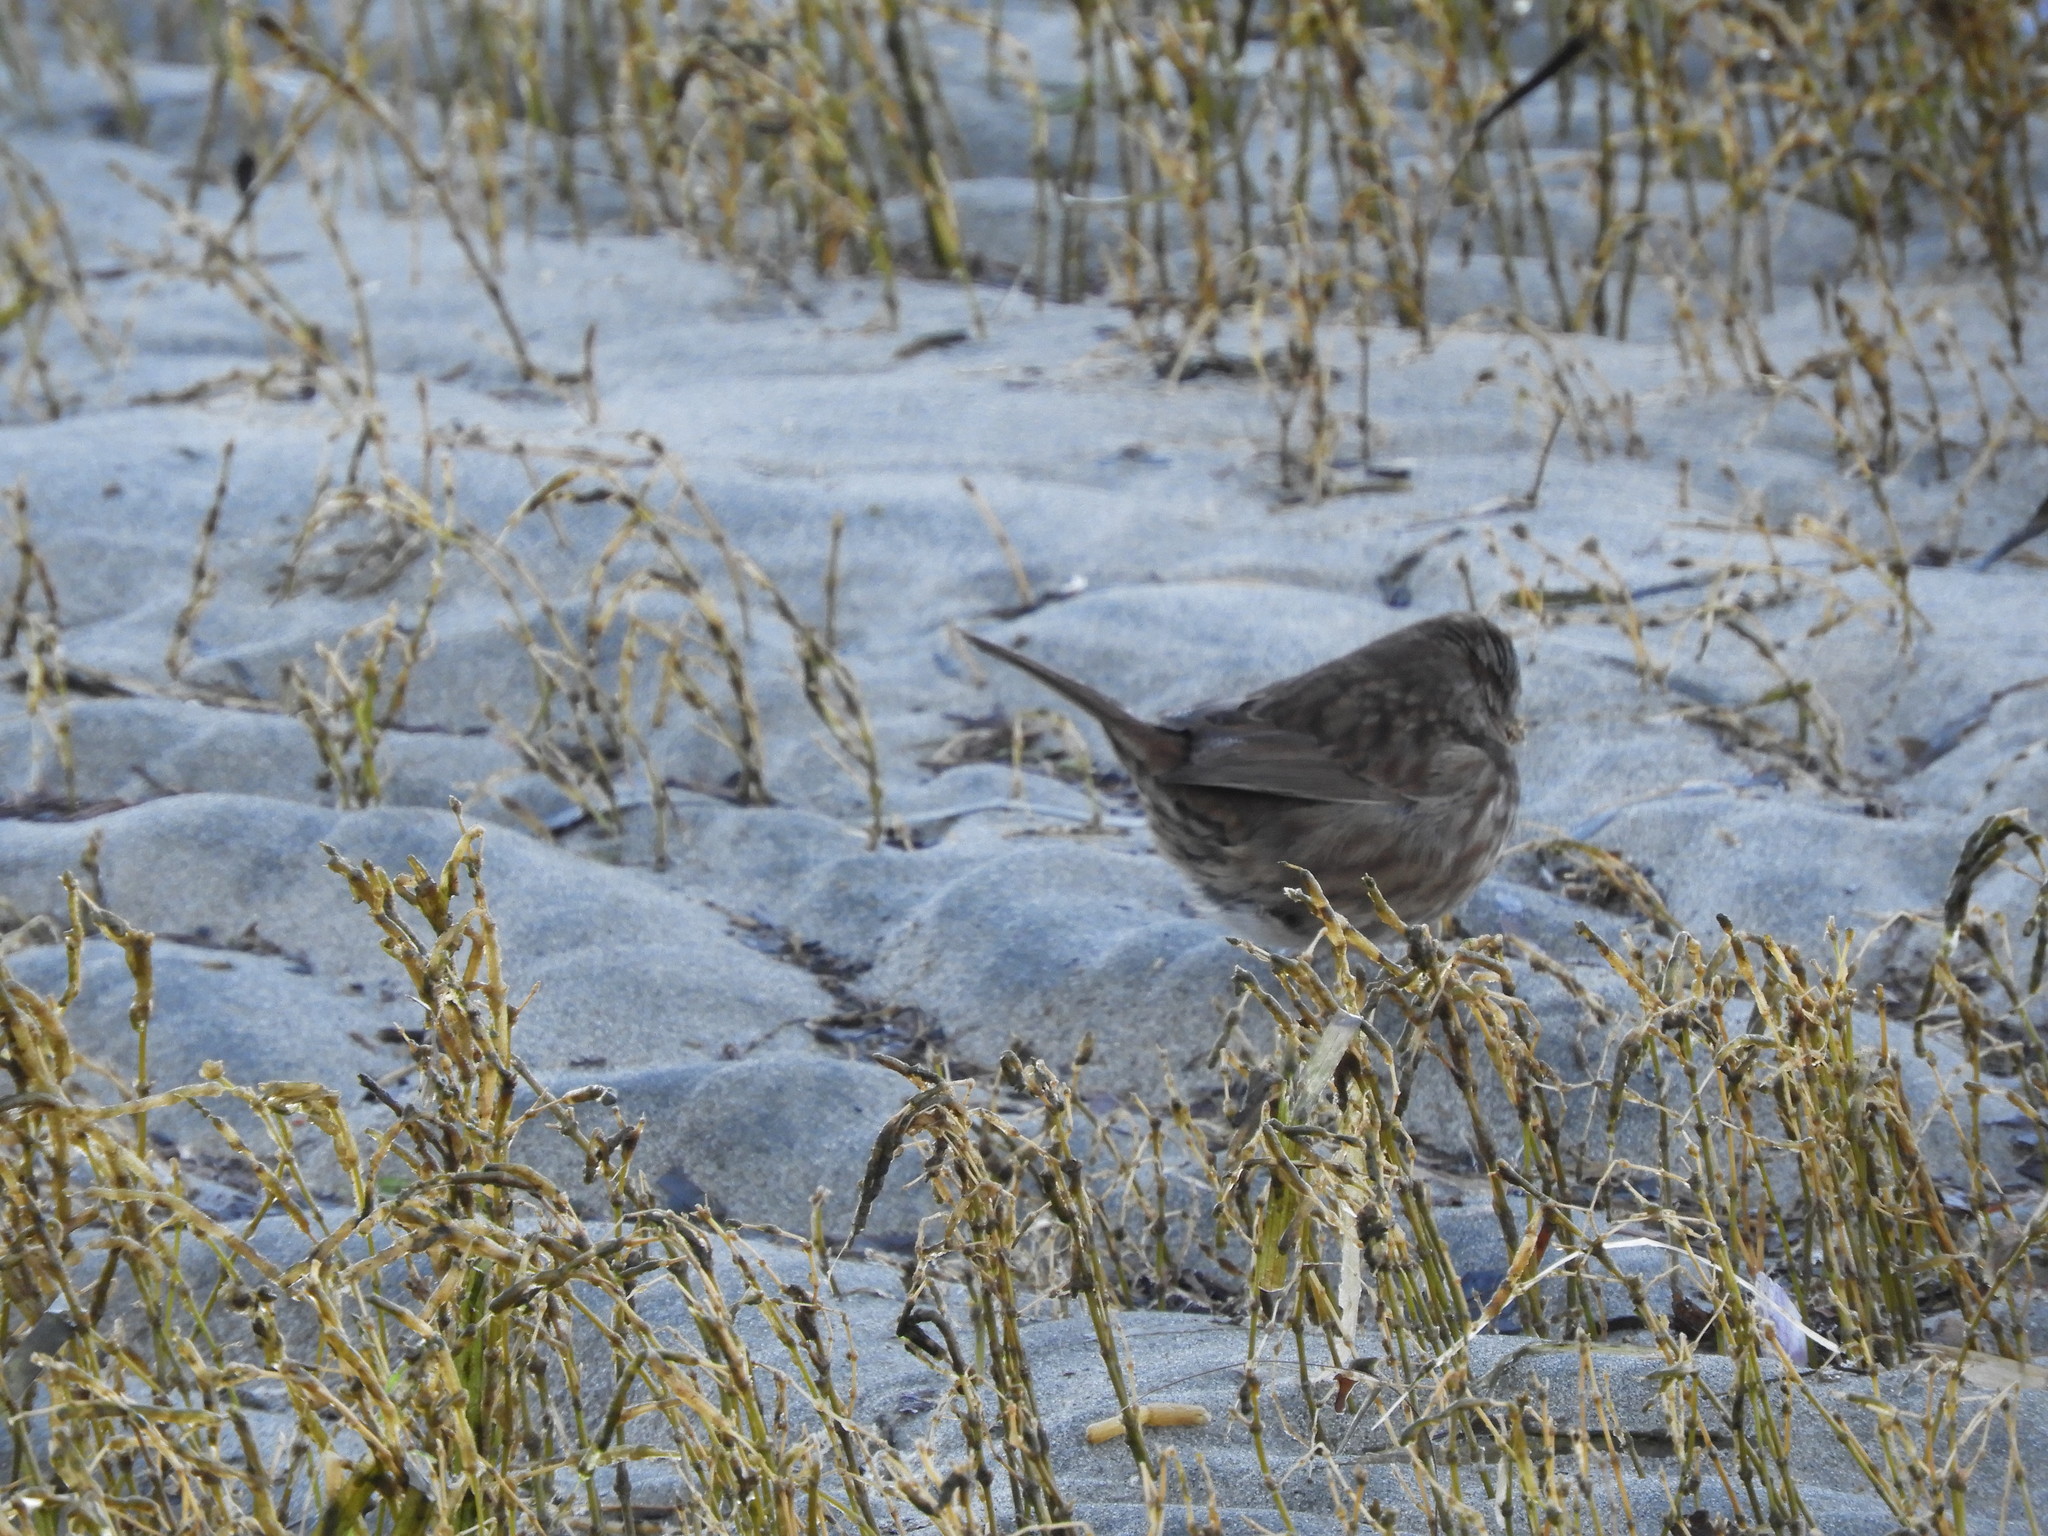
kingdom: Animalia
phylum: Chordata
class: Aves
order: Passeriformes
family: Passerellidae
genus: Melospiza
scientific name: Melospiza melodia
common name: Song sparrow
